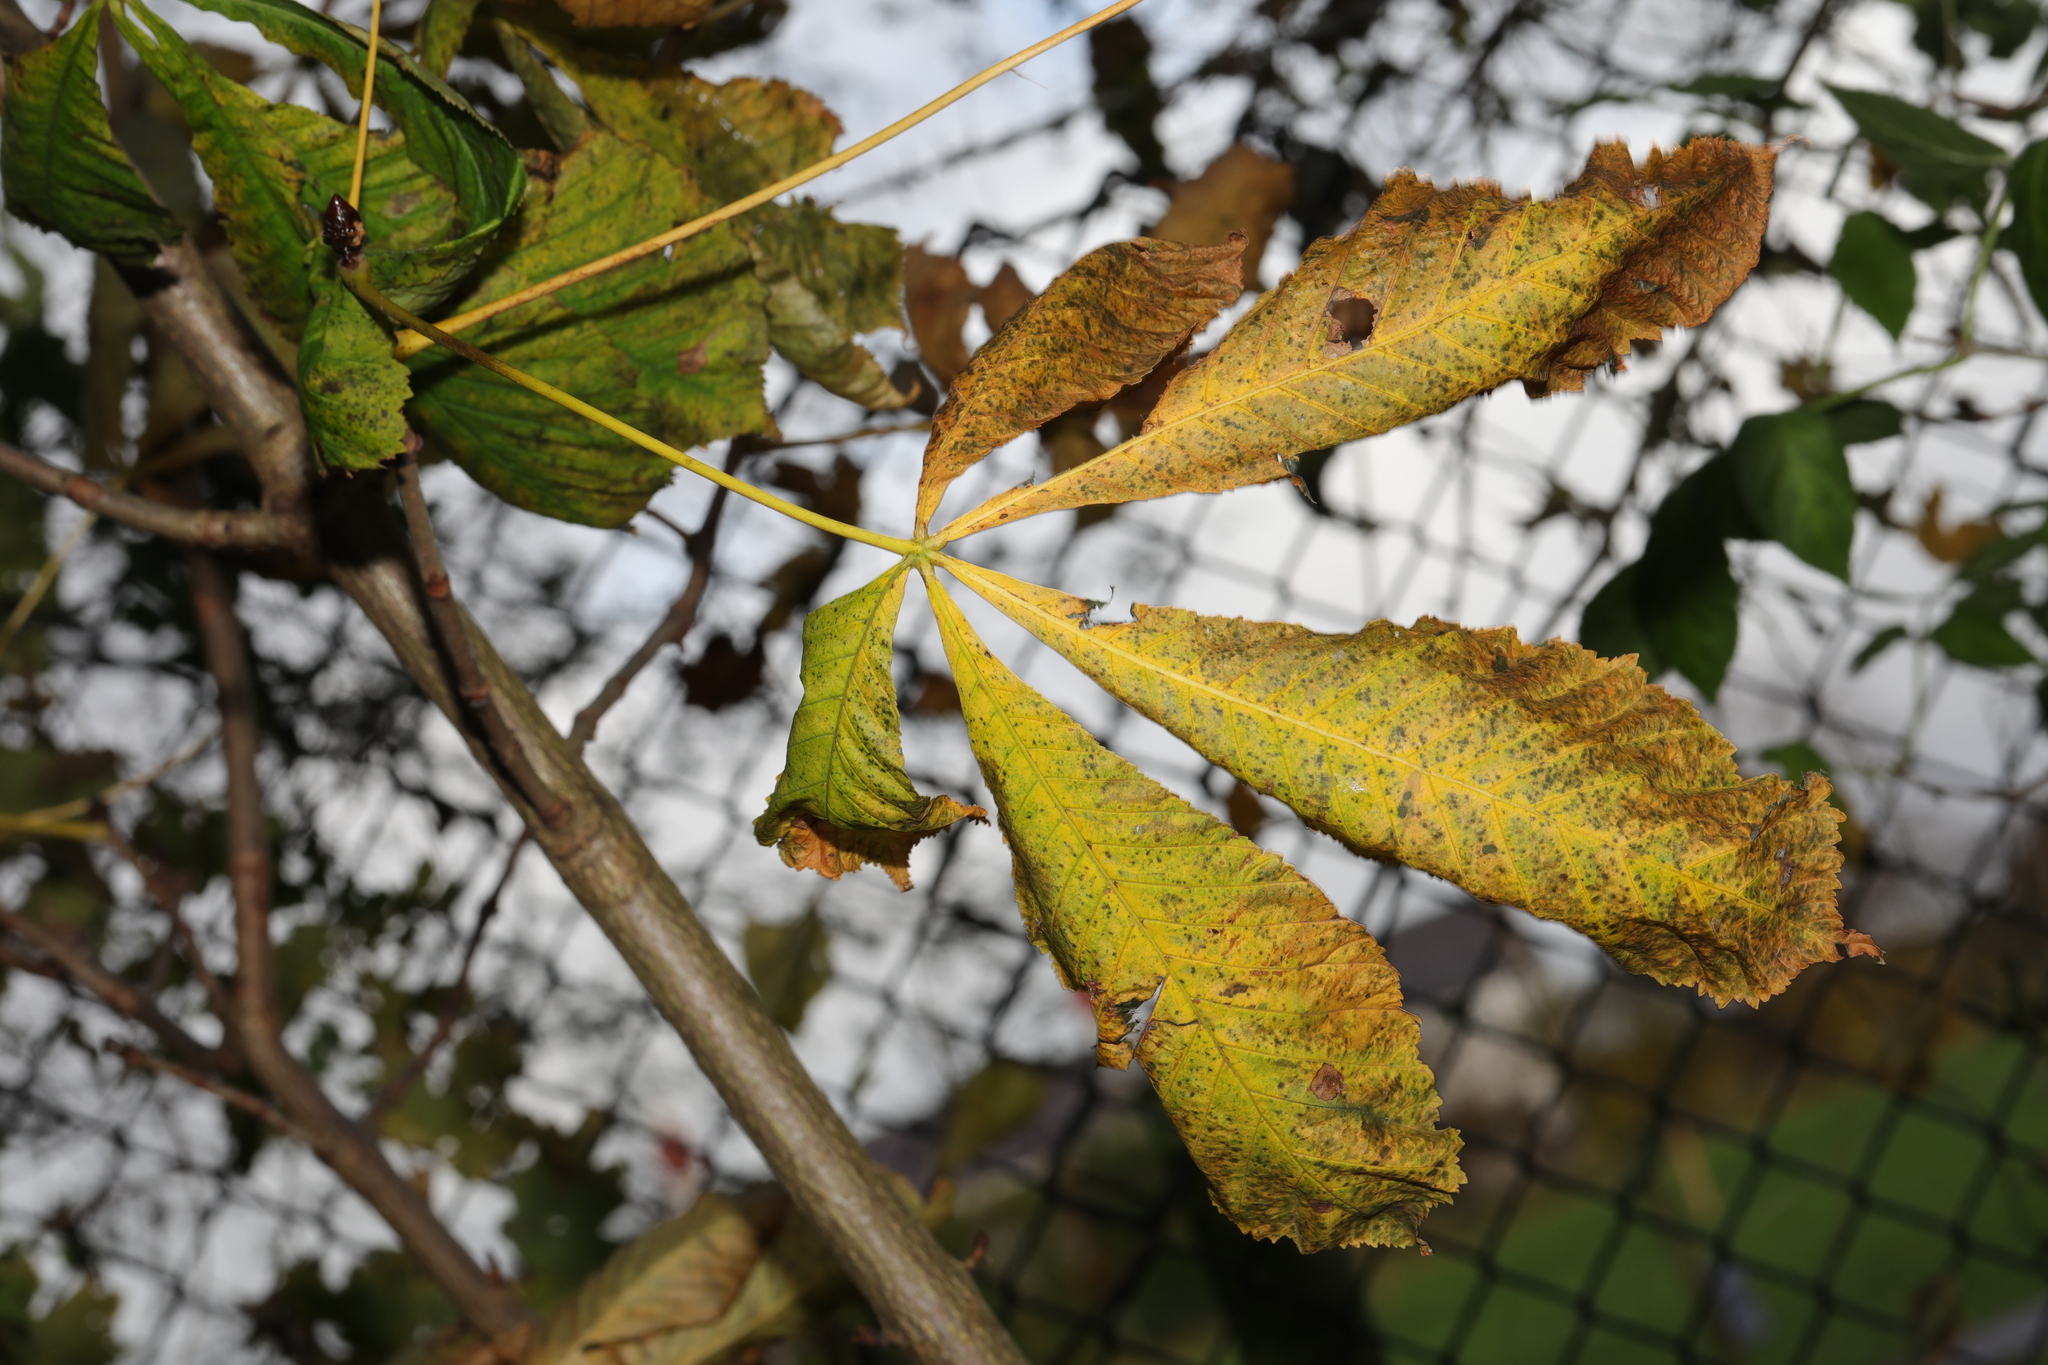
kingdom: Plantae
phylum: Tracheophyta
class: Magnoliopsida
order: Sapindales
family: Sapindaceae
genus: Aesculus
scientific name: Aesculus hippocastanum
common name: Horse-chestnut
